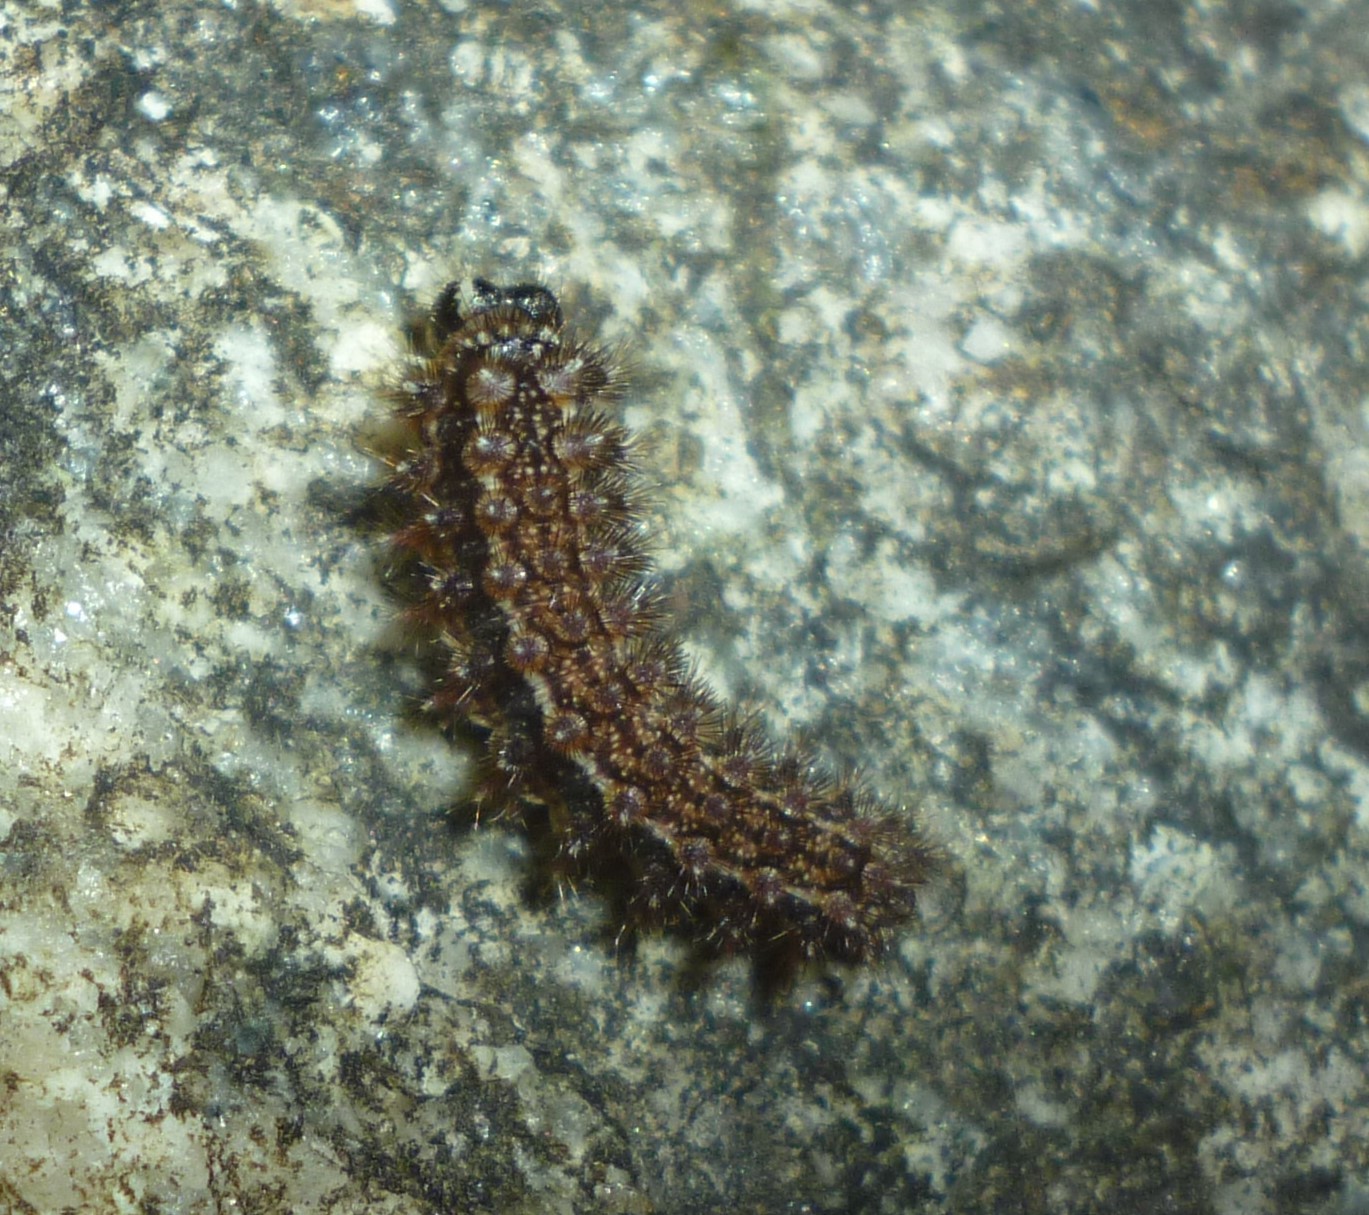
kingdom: Animalia
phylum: Arthropoda
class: Insecta
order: Lepidoptera
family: Nymphalidae
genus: Phyciodes
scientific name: Phyciodes tharos
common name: Pearl crescent
